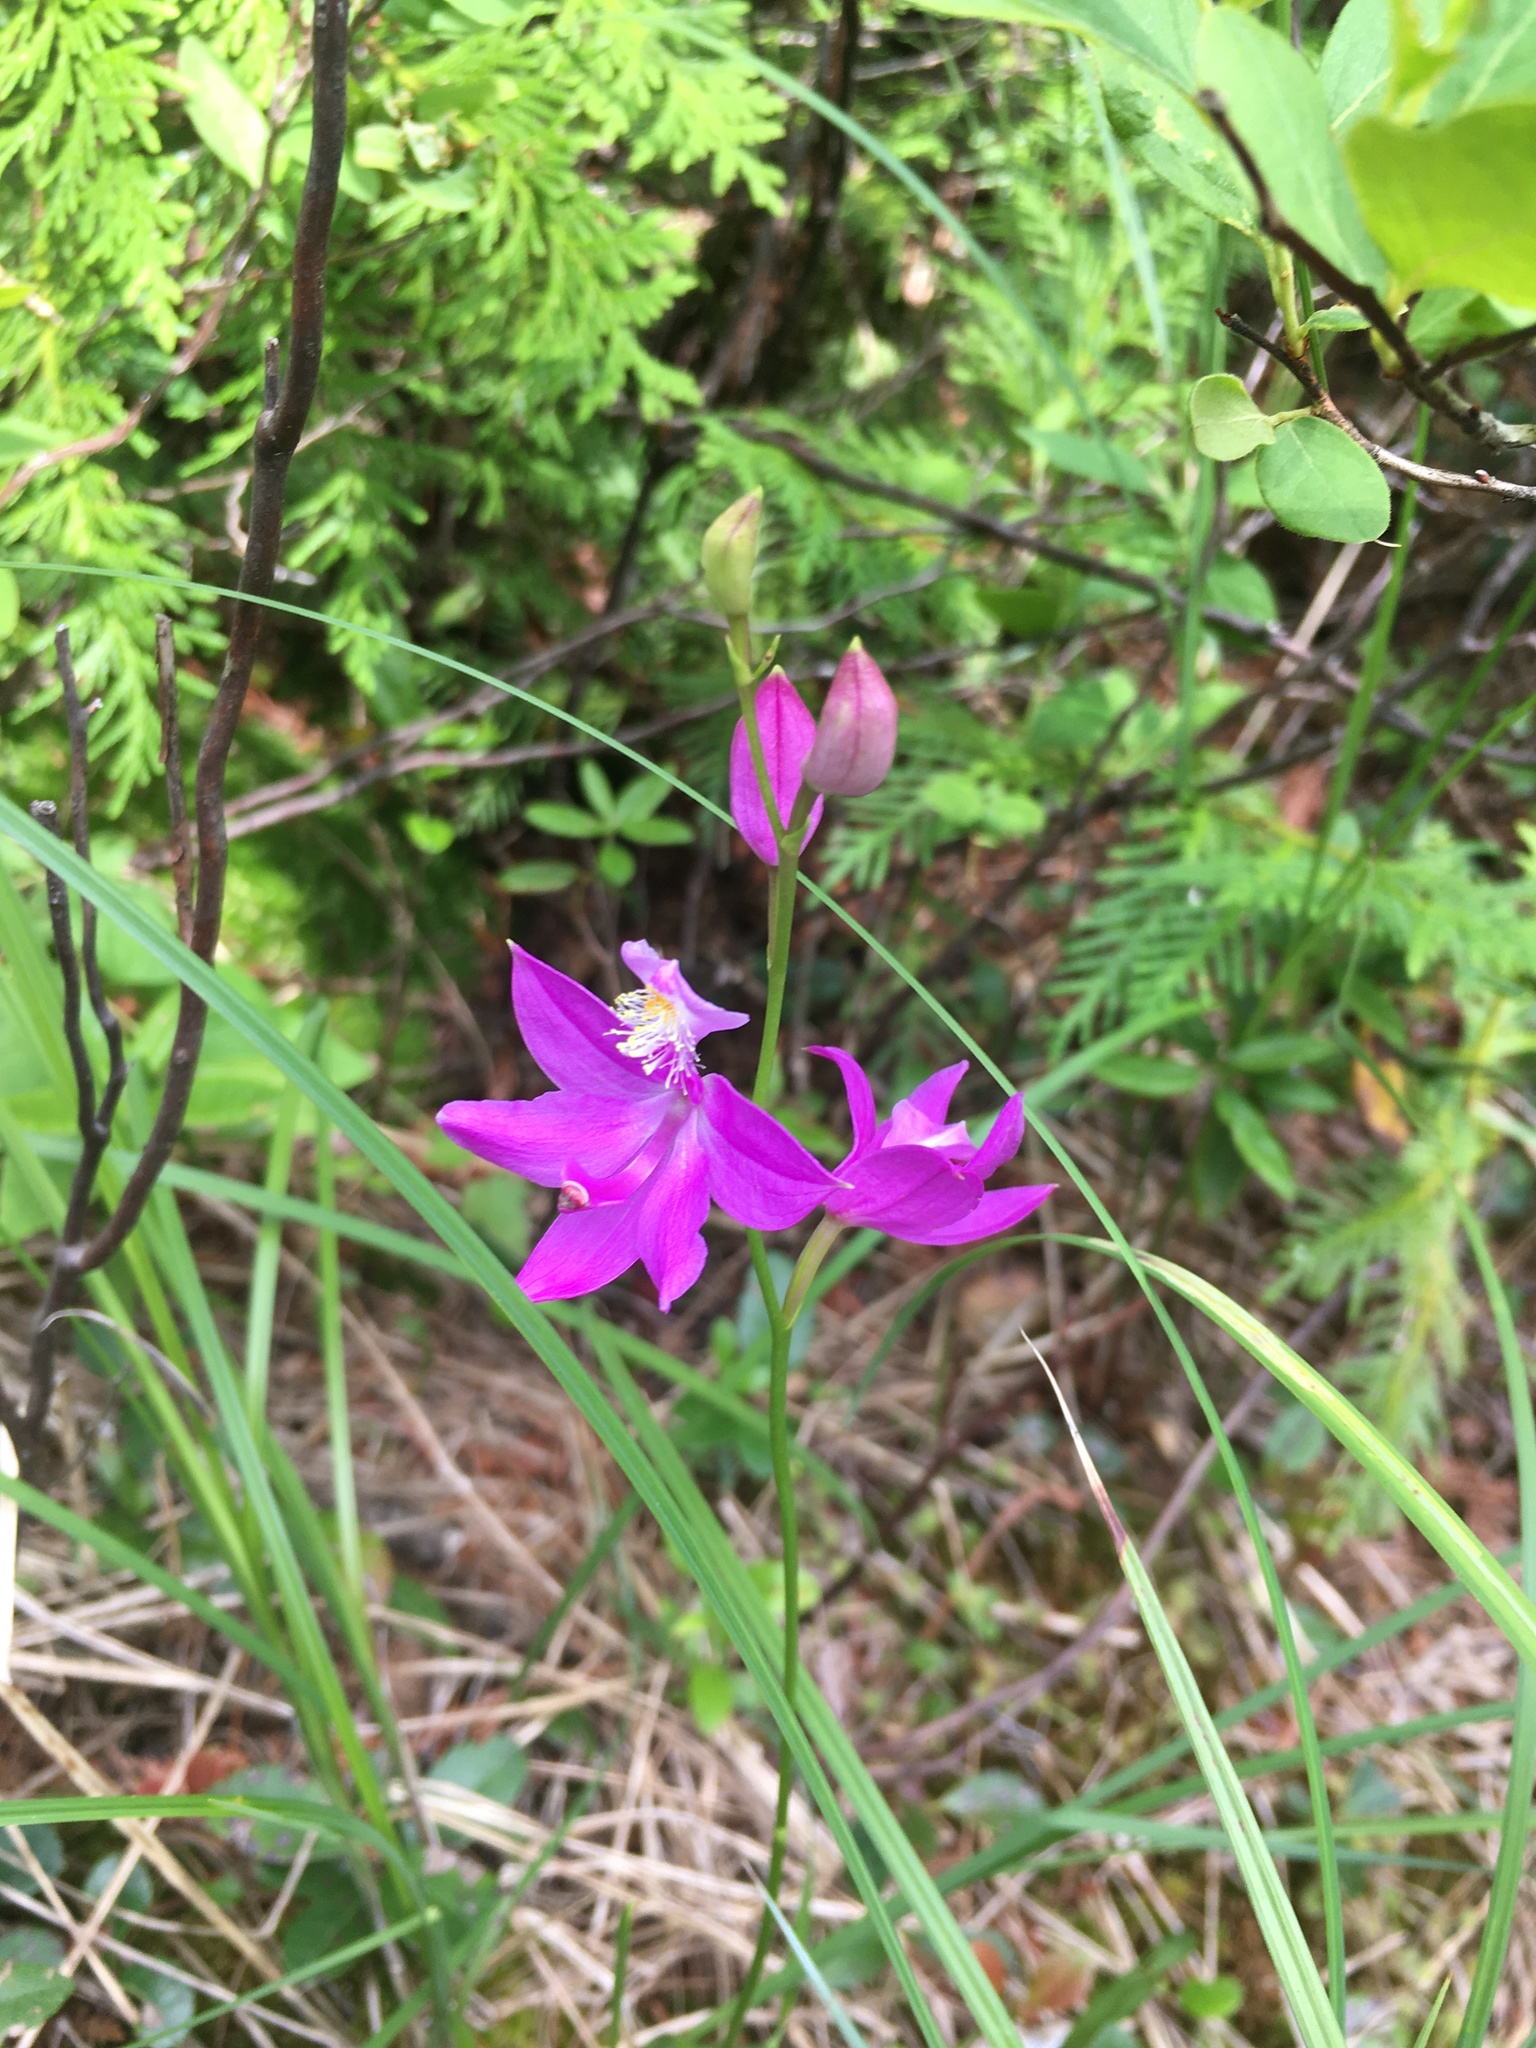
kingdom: Plantae
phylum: Tracheophyta
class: Liliopsida
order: Asparagales
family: Orchidaceae
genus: Calopogon
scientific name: Calopogon tuberosus
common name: Grass-pink
